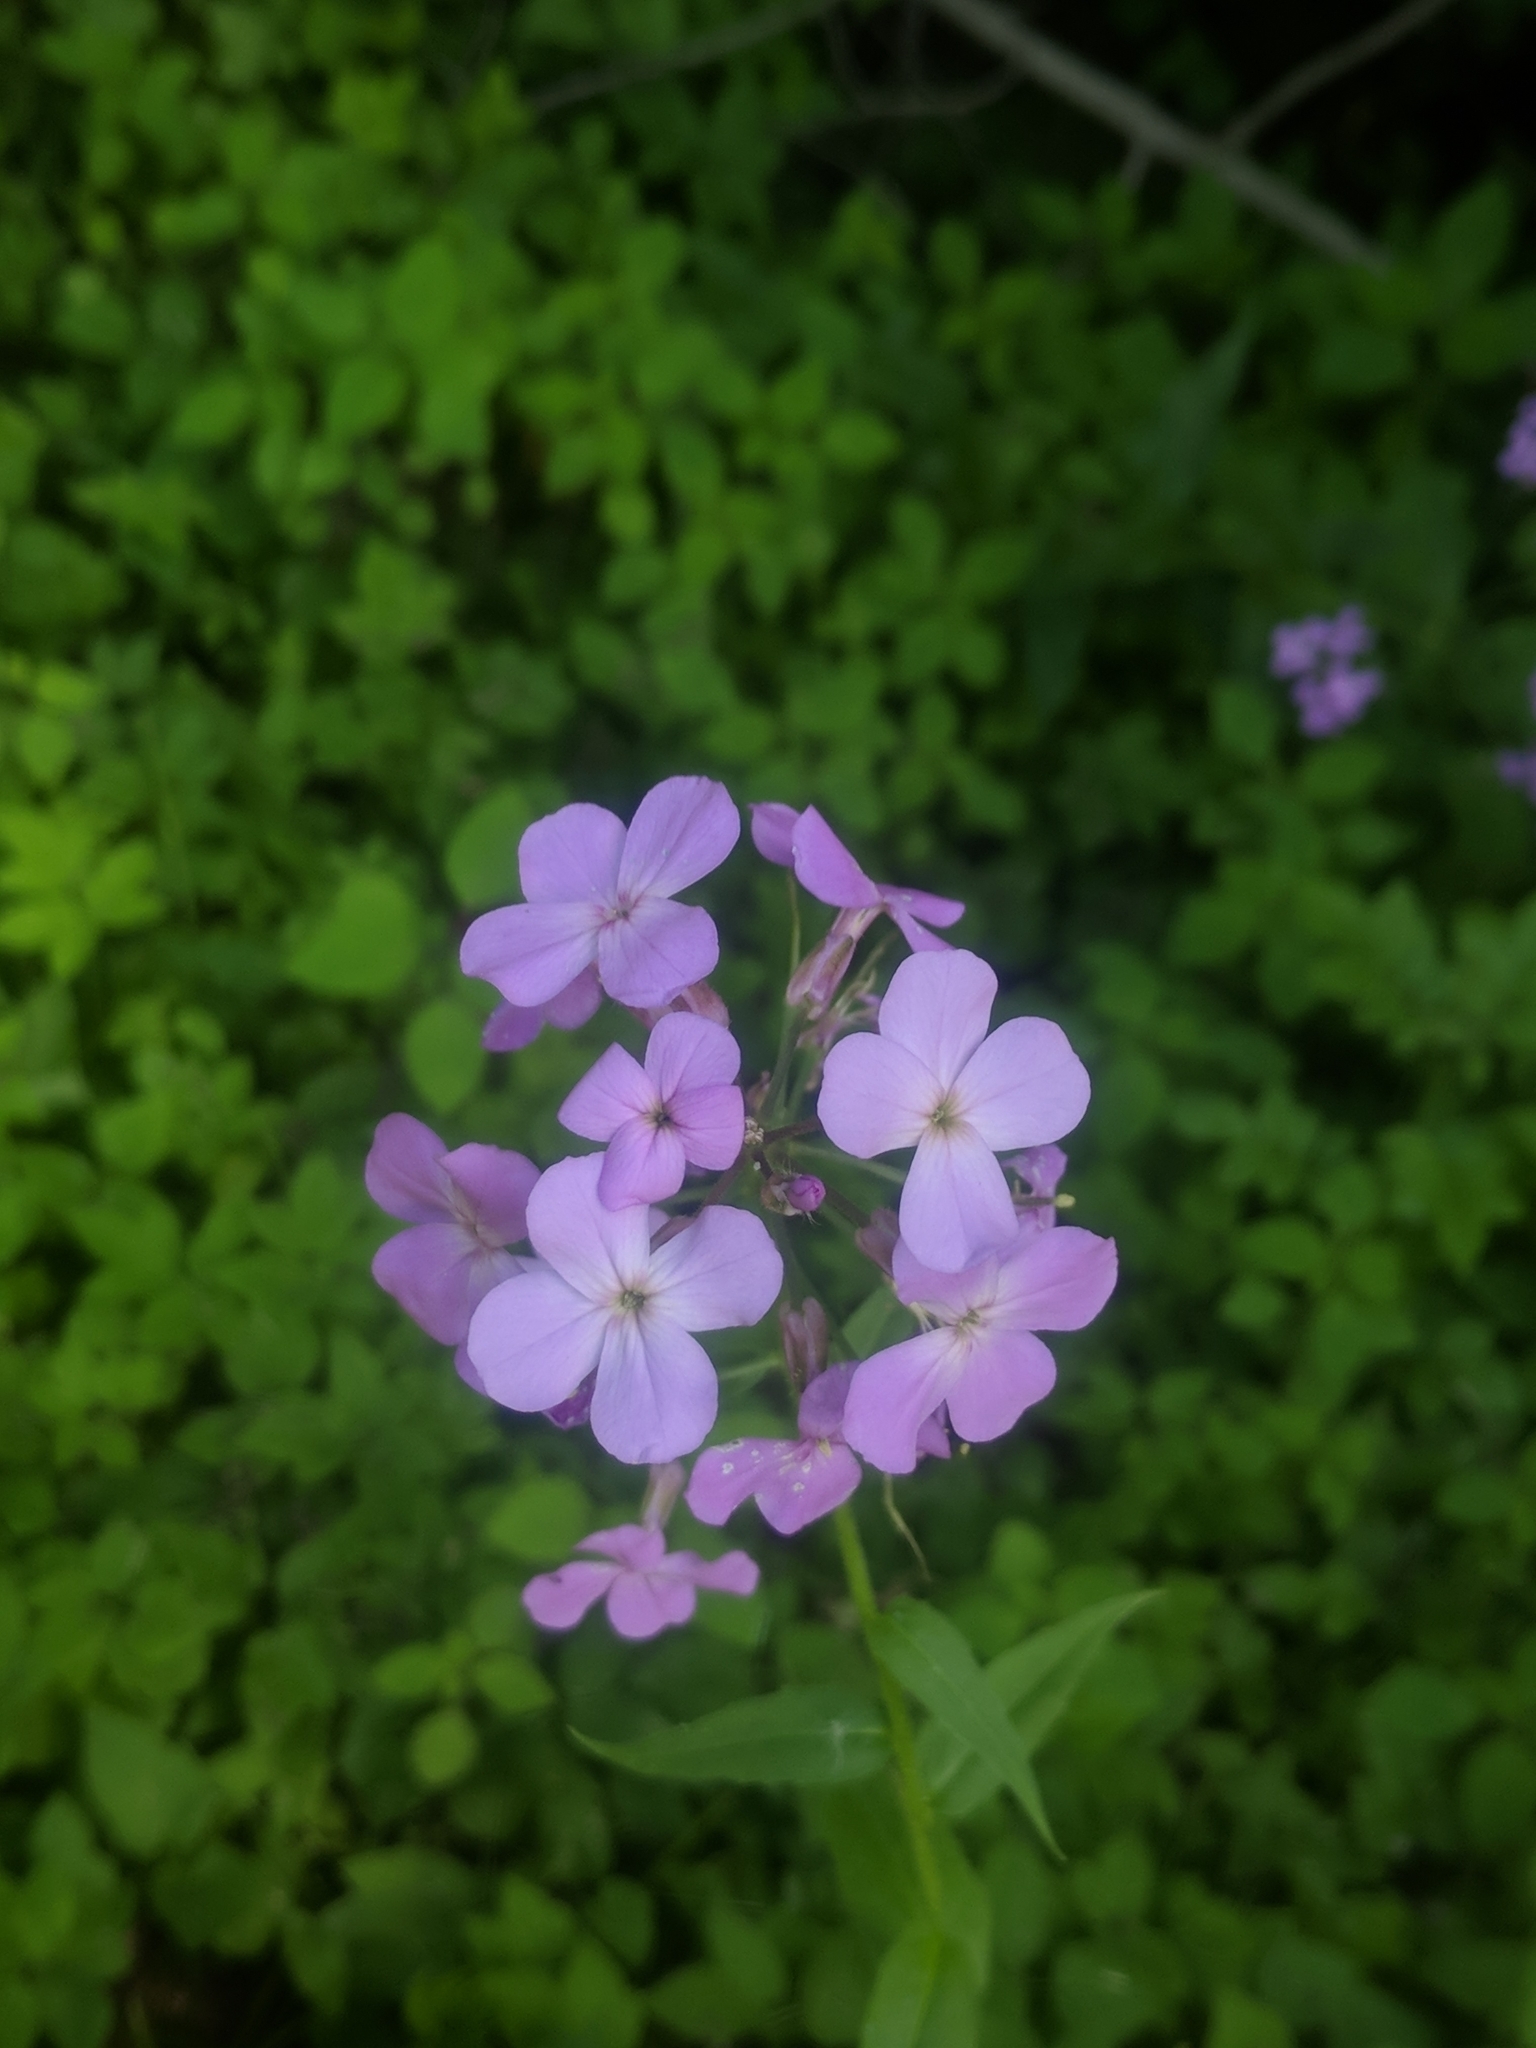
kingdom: Plantae
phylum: Tracheophyta
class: Magnoliopsida
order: Brassicales
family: Brassicaceae
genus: Hesperis
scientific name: Hesperis matronalis
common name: Dame's-violet
